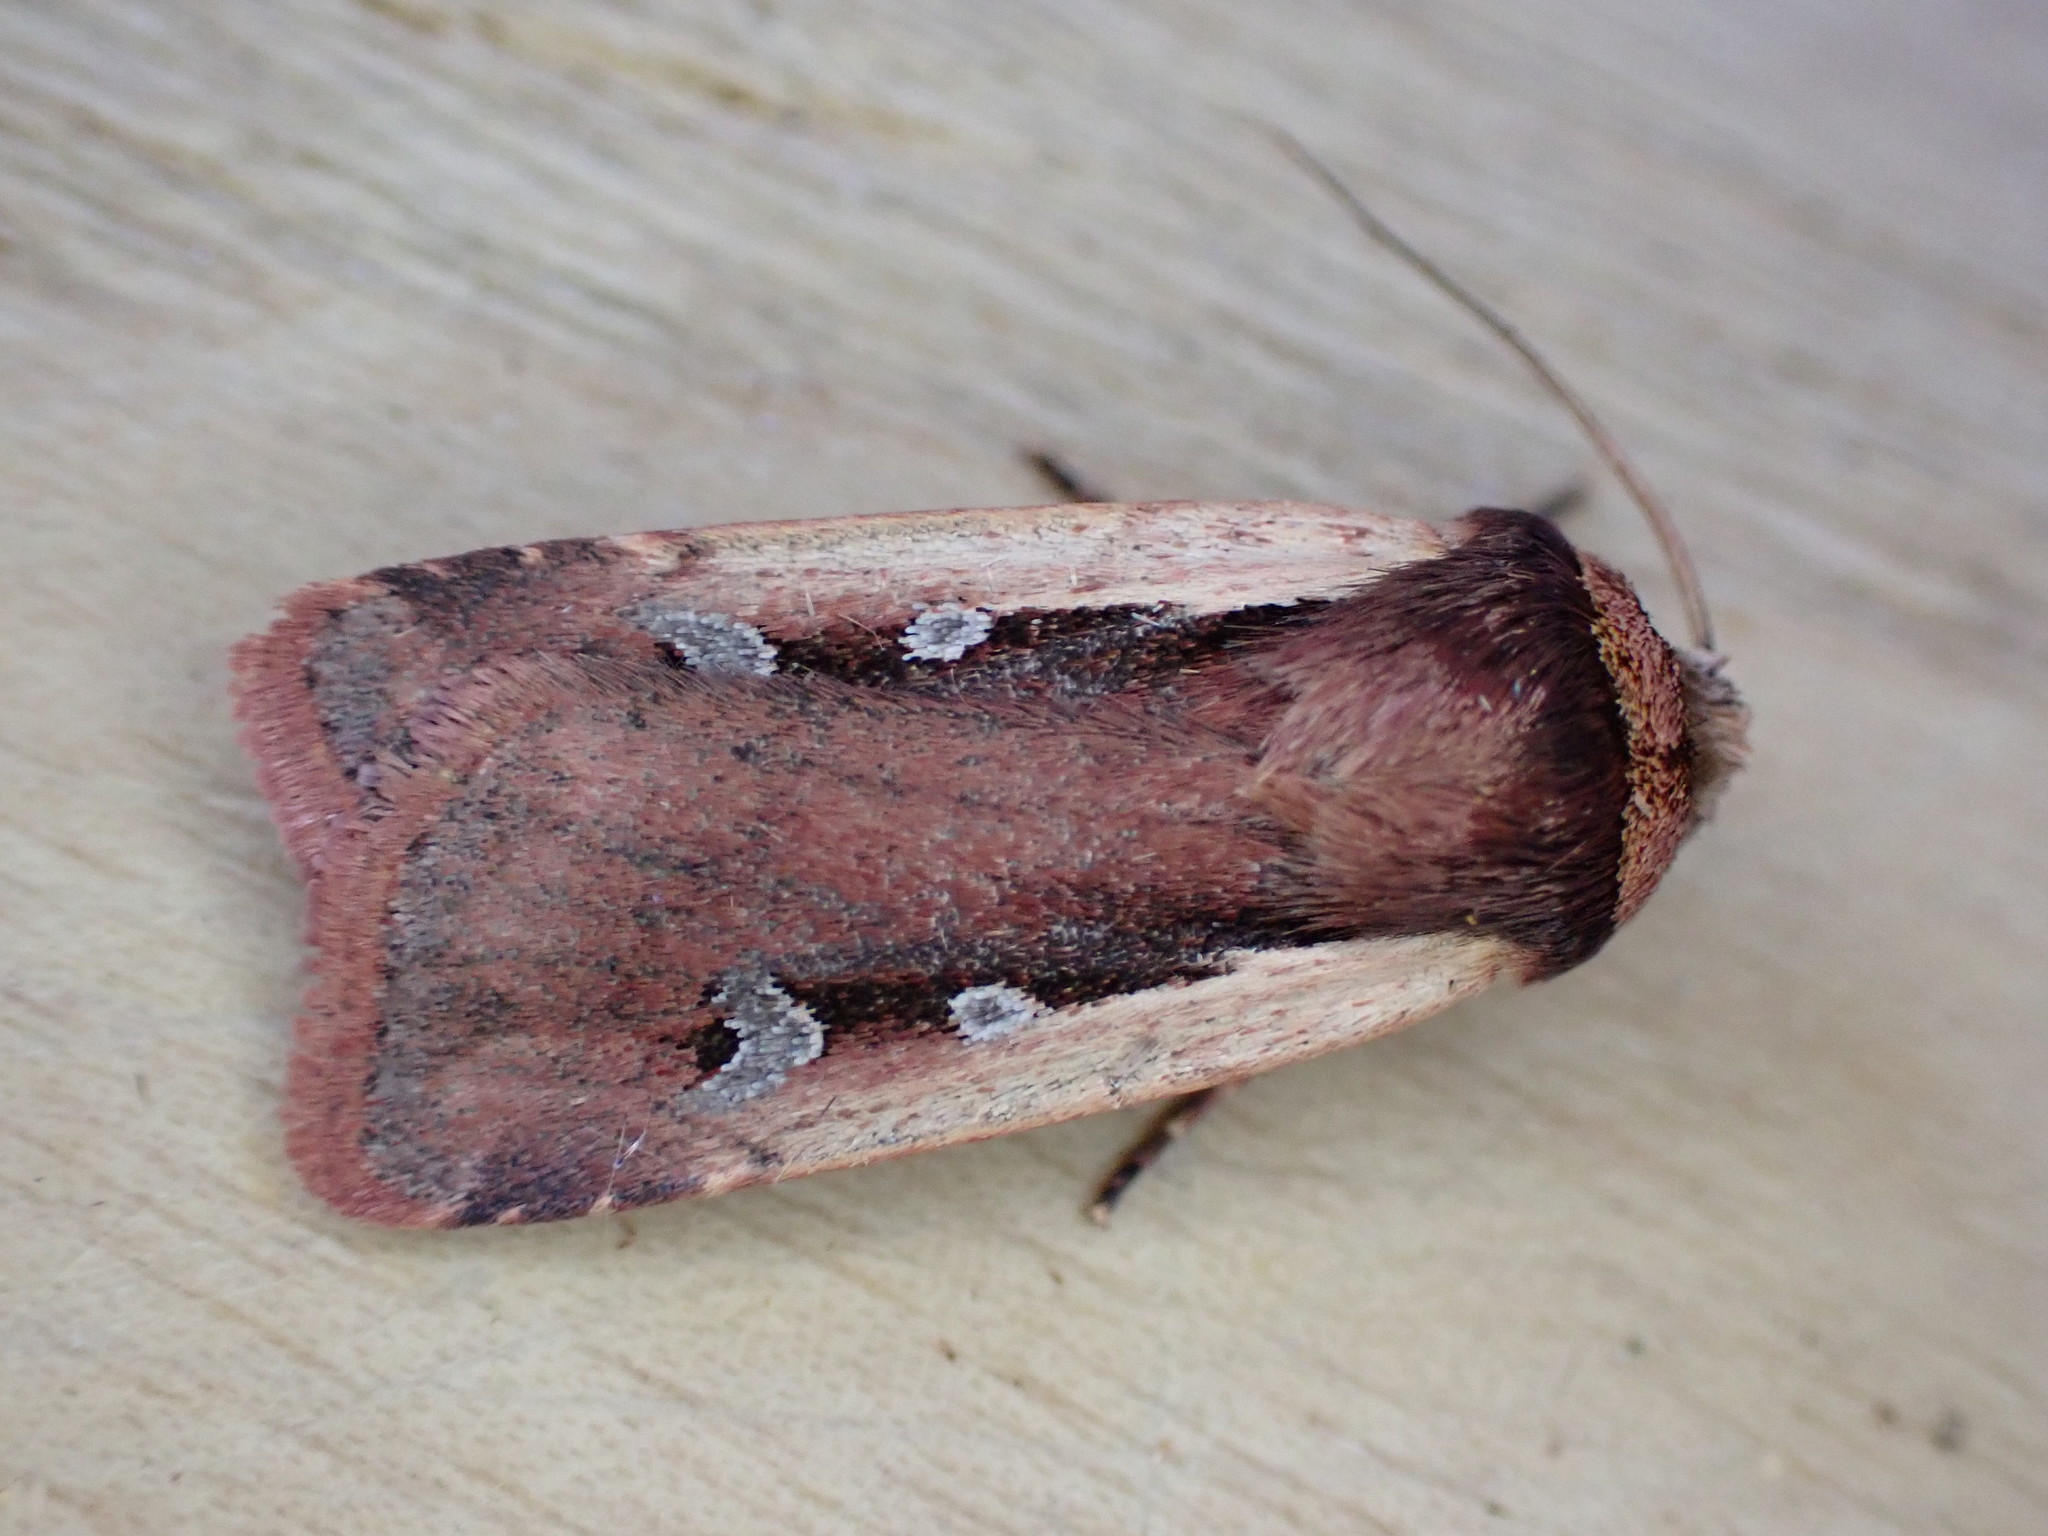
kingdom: Animalia
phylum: Arthropoda
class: Insecta
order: Lepidoptera
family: Noctuidae
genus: Ochropleura
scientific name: Ochropleura plecta
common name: Flame shoulder
